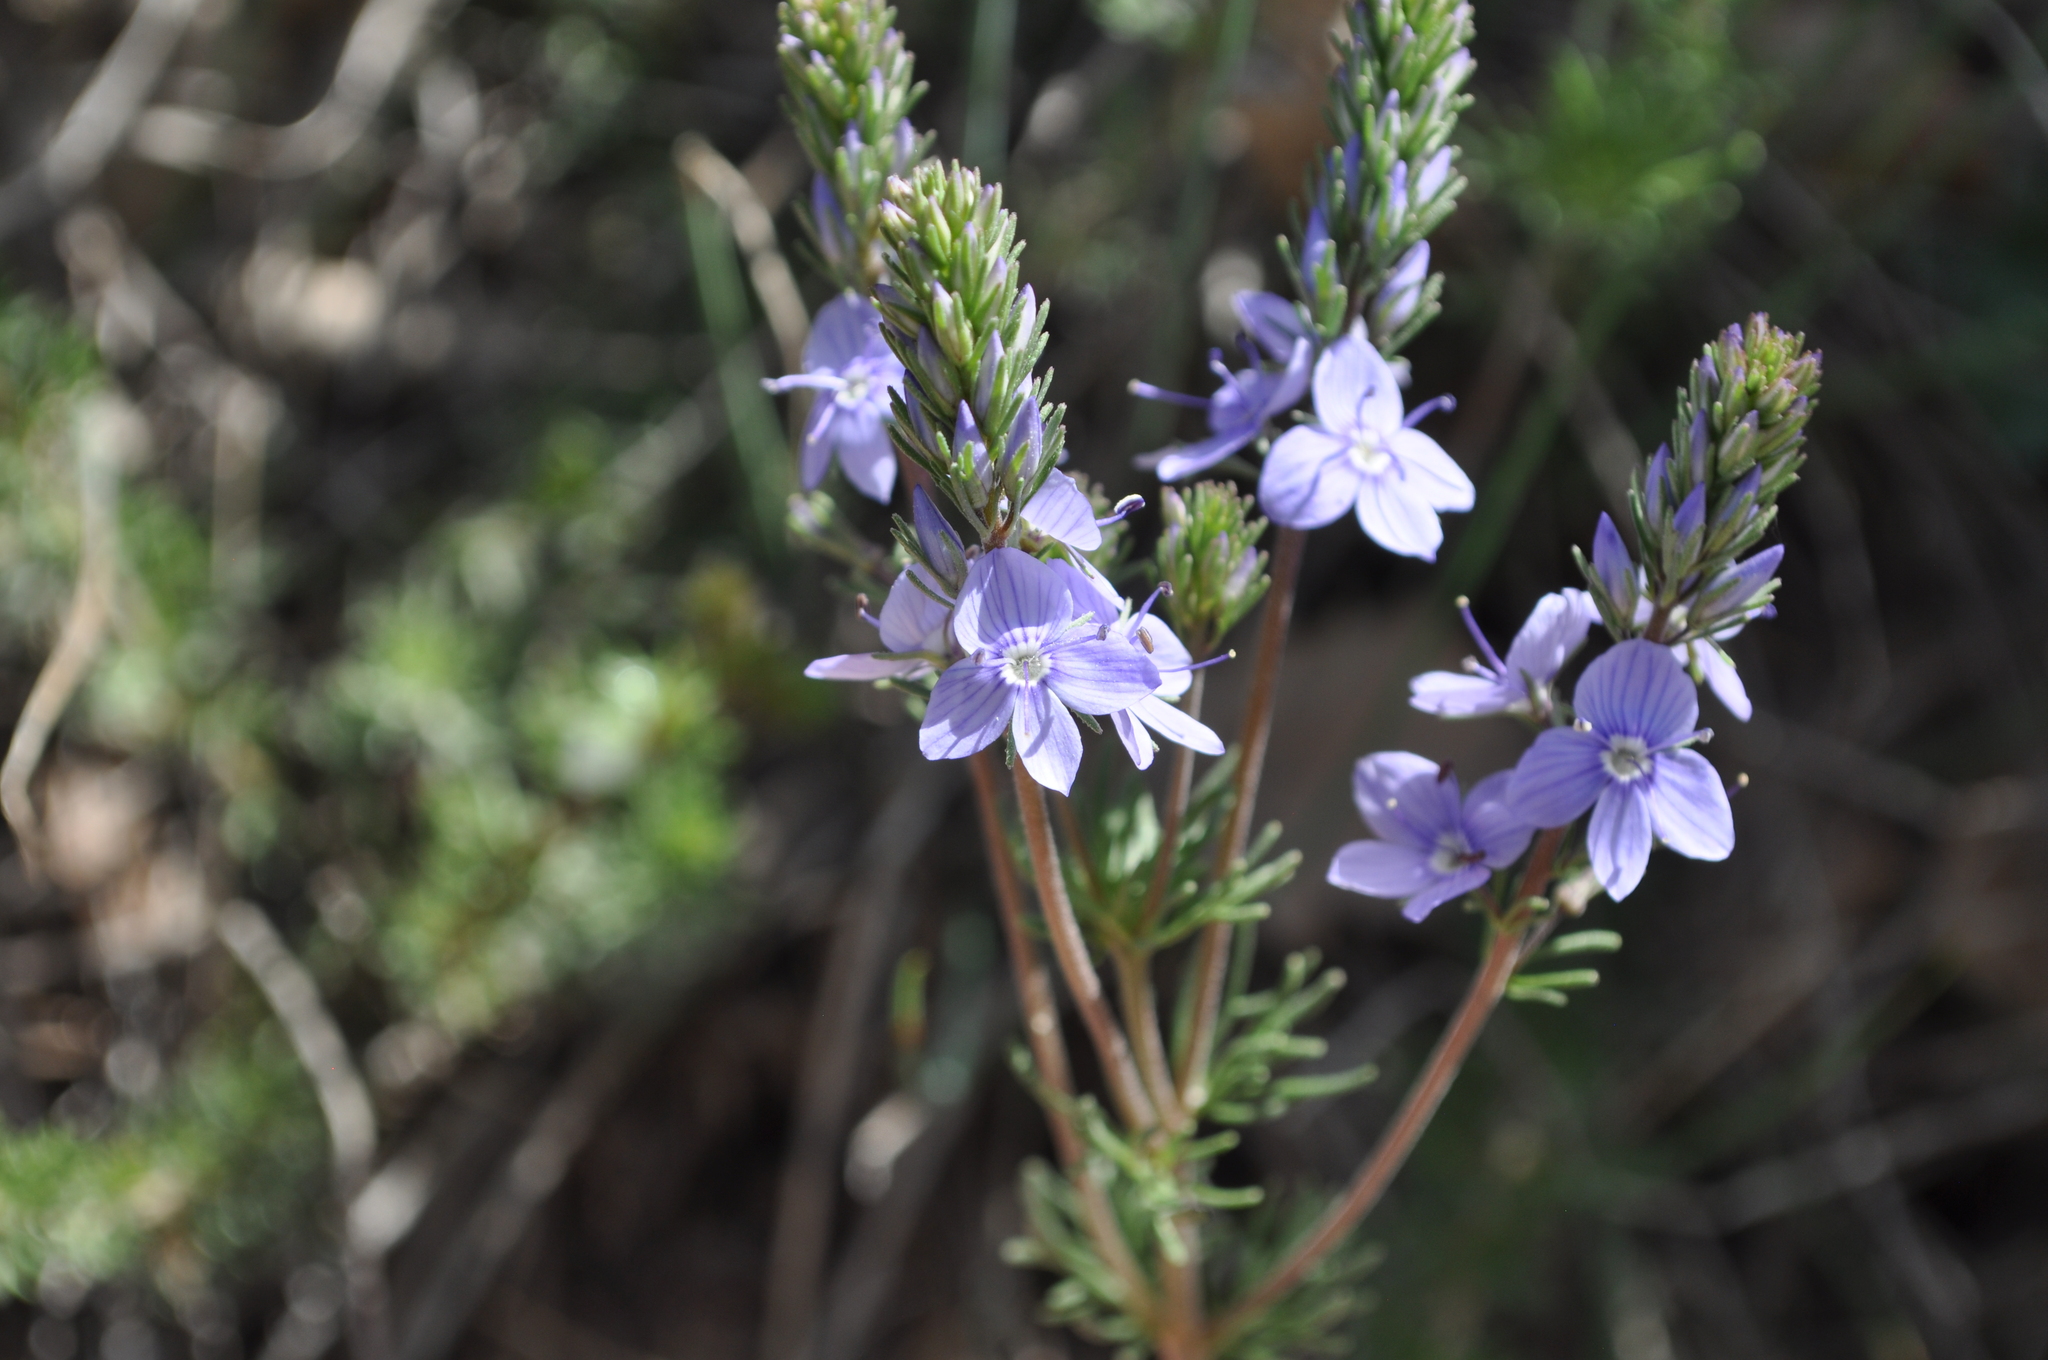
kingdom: Plantae
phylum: Tracheophyta
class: Magnoliopsida
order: Lamiales
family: Plantaginaceae
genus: Veronica
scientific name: Veronica tenuifolia
